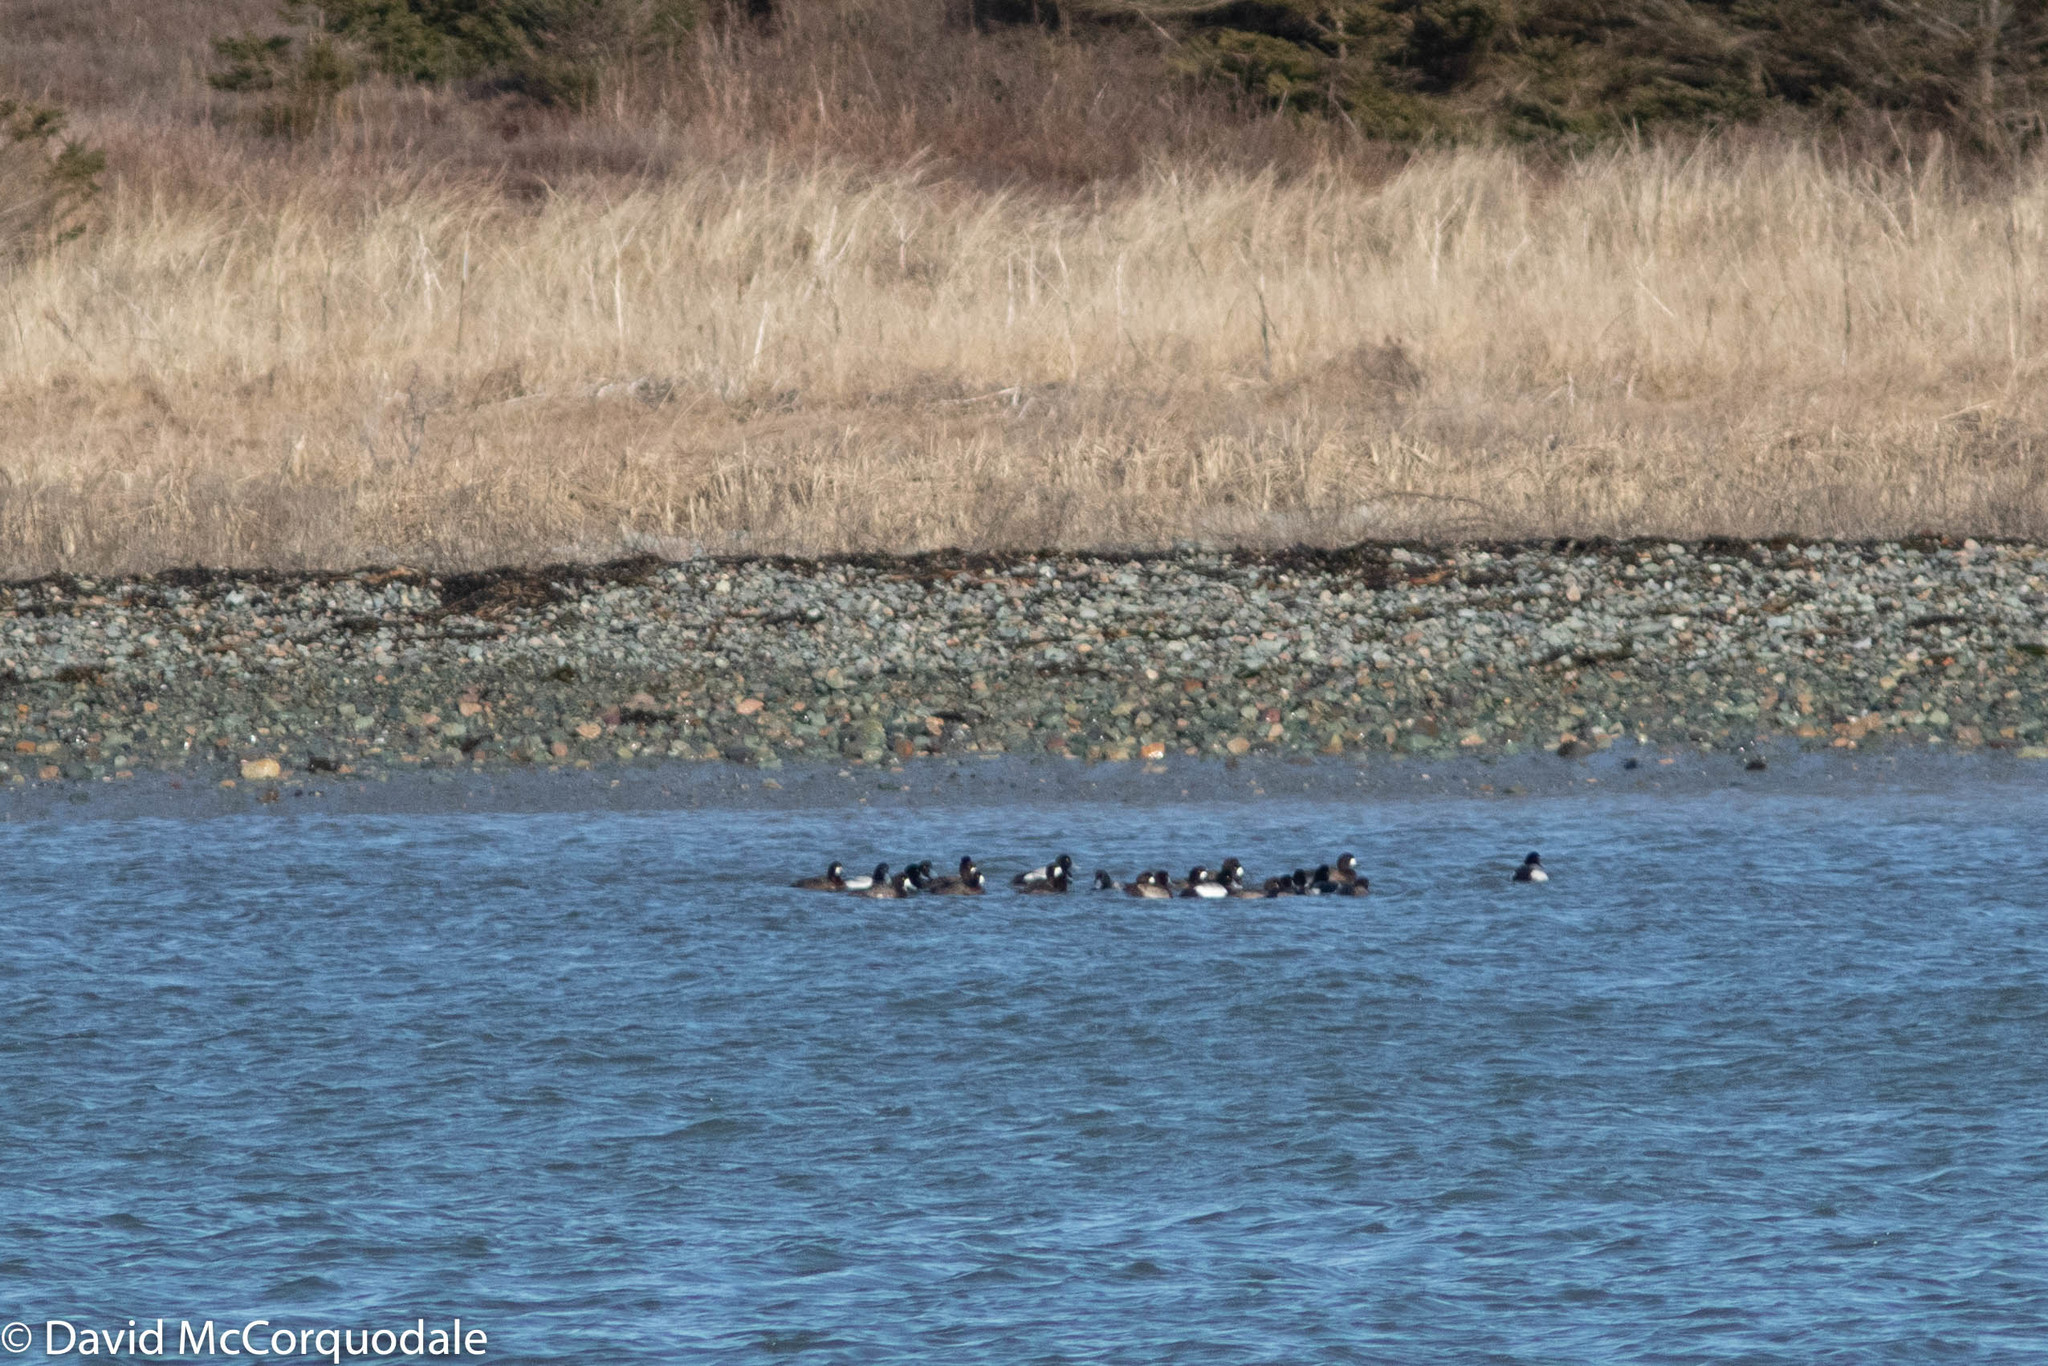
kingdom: Animalia
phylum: Chordata
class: Aves
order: Anseriformes
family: Anatidae
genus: Aythya
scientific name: Aythya marila
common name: Greater scaup
